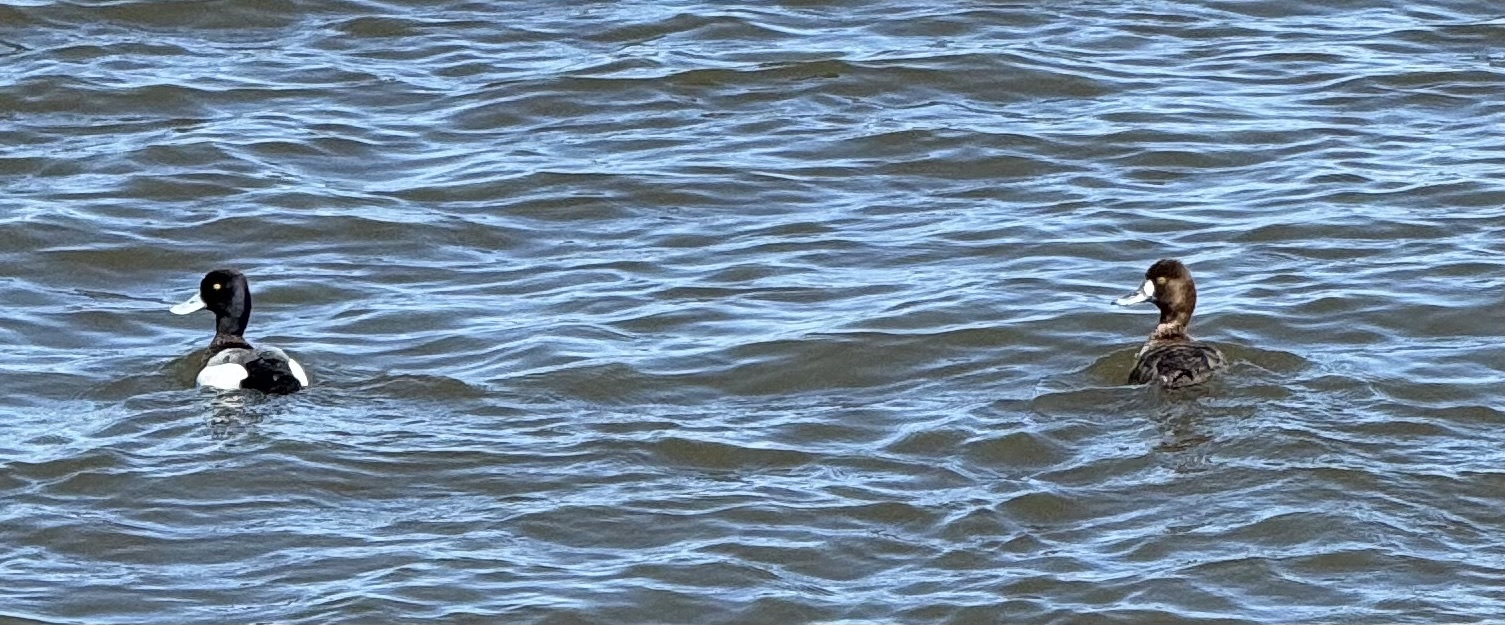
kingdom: Animalia
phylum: Chordata
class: Aves
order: Anseriformes
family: Anatidae
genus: Aythya
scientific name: Aythya affinis
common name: Lesser scaup
